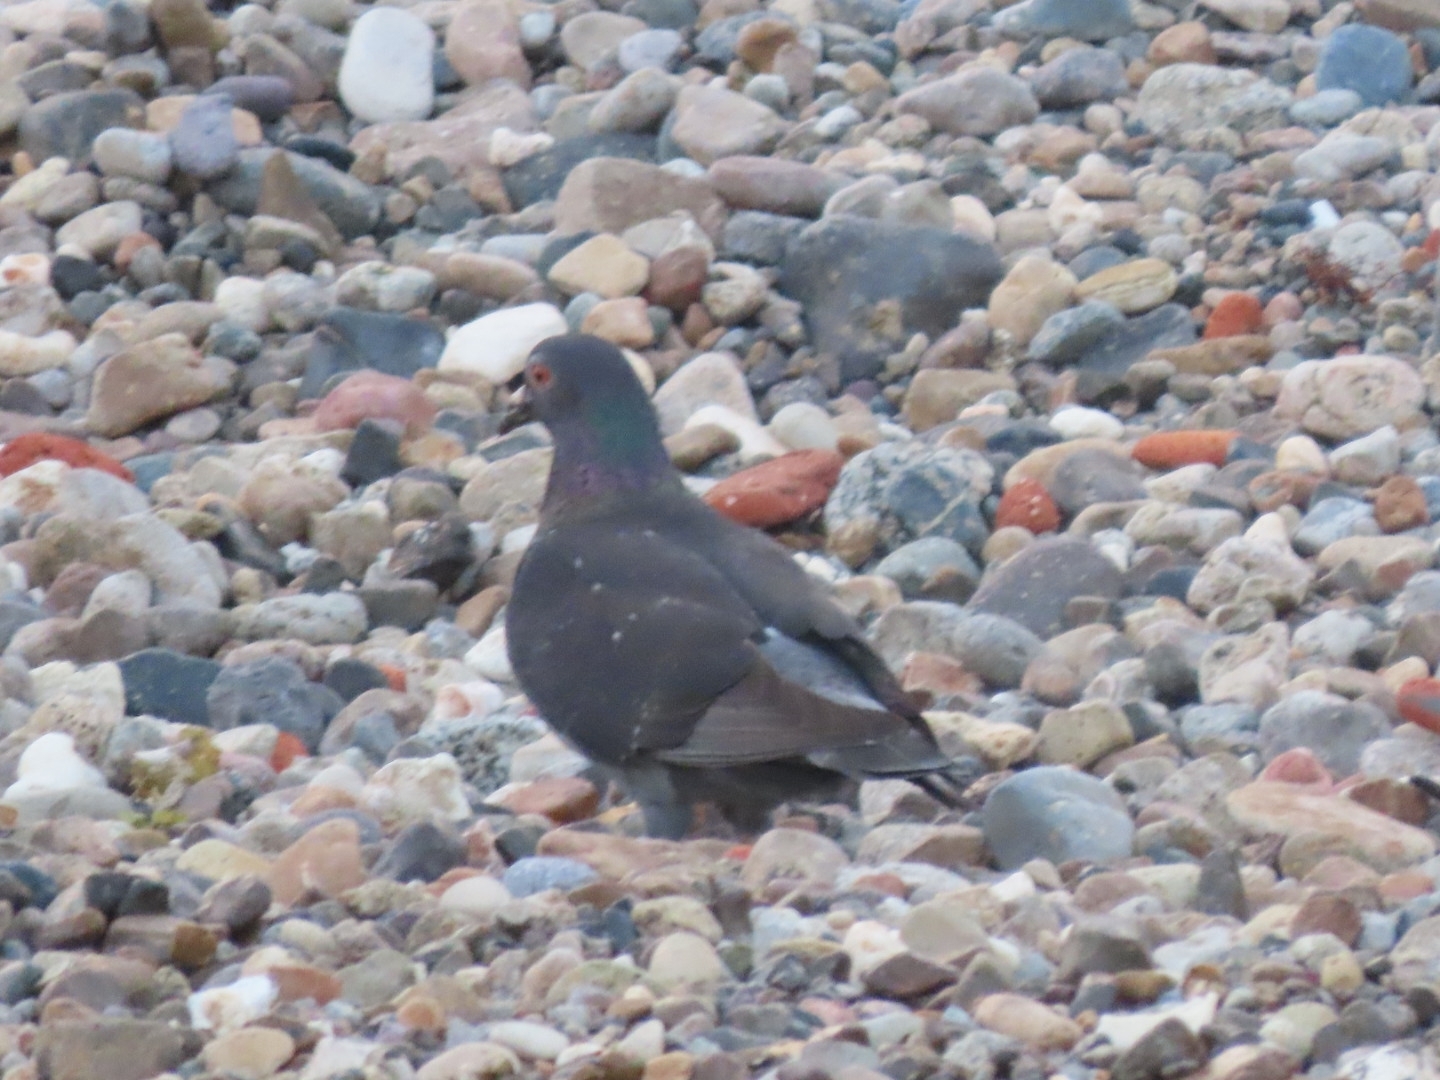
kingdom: Animalia
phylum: Chordata
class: Aves
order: Columbiformes
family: Columbidae
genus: Columba
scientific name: Columba livia
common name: Rock pigeon
